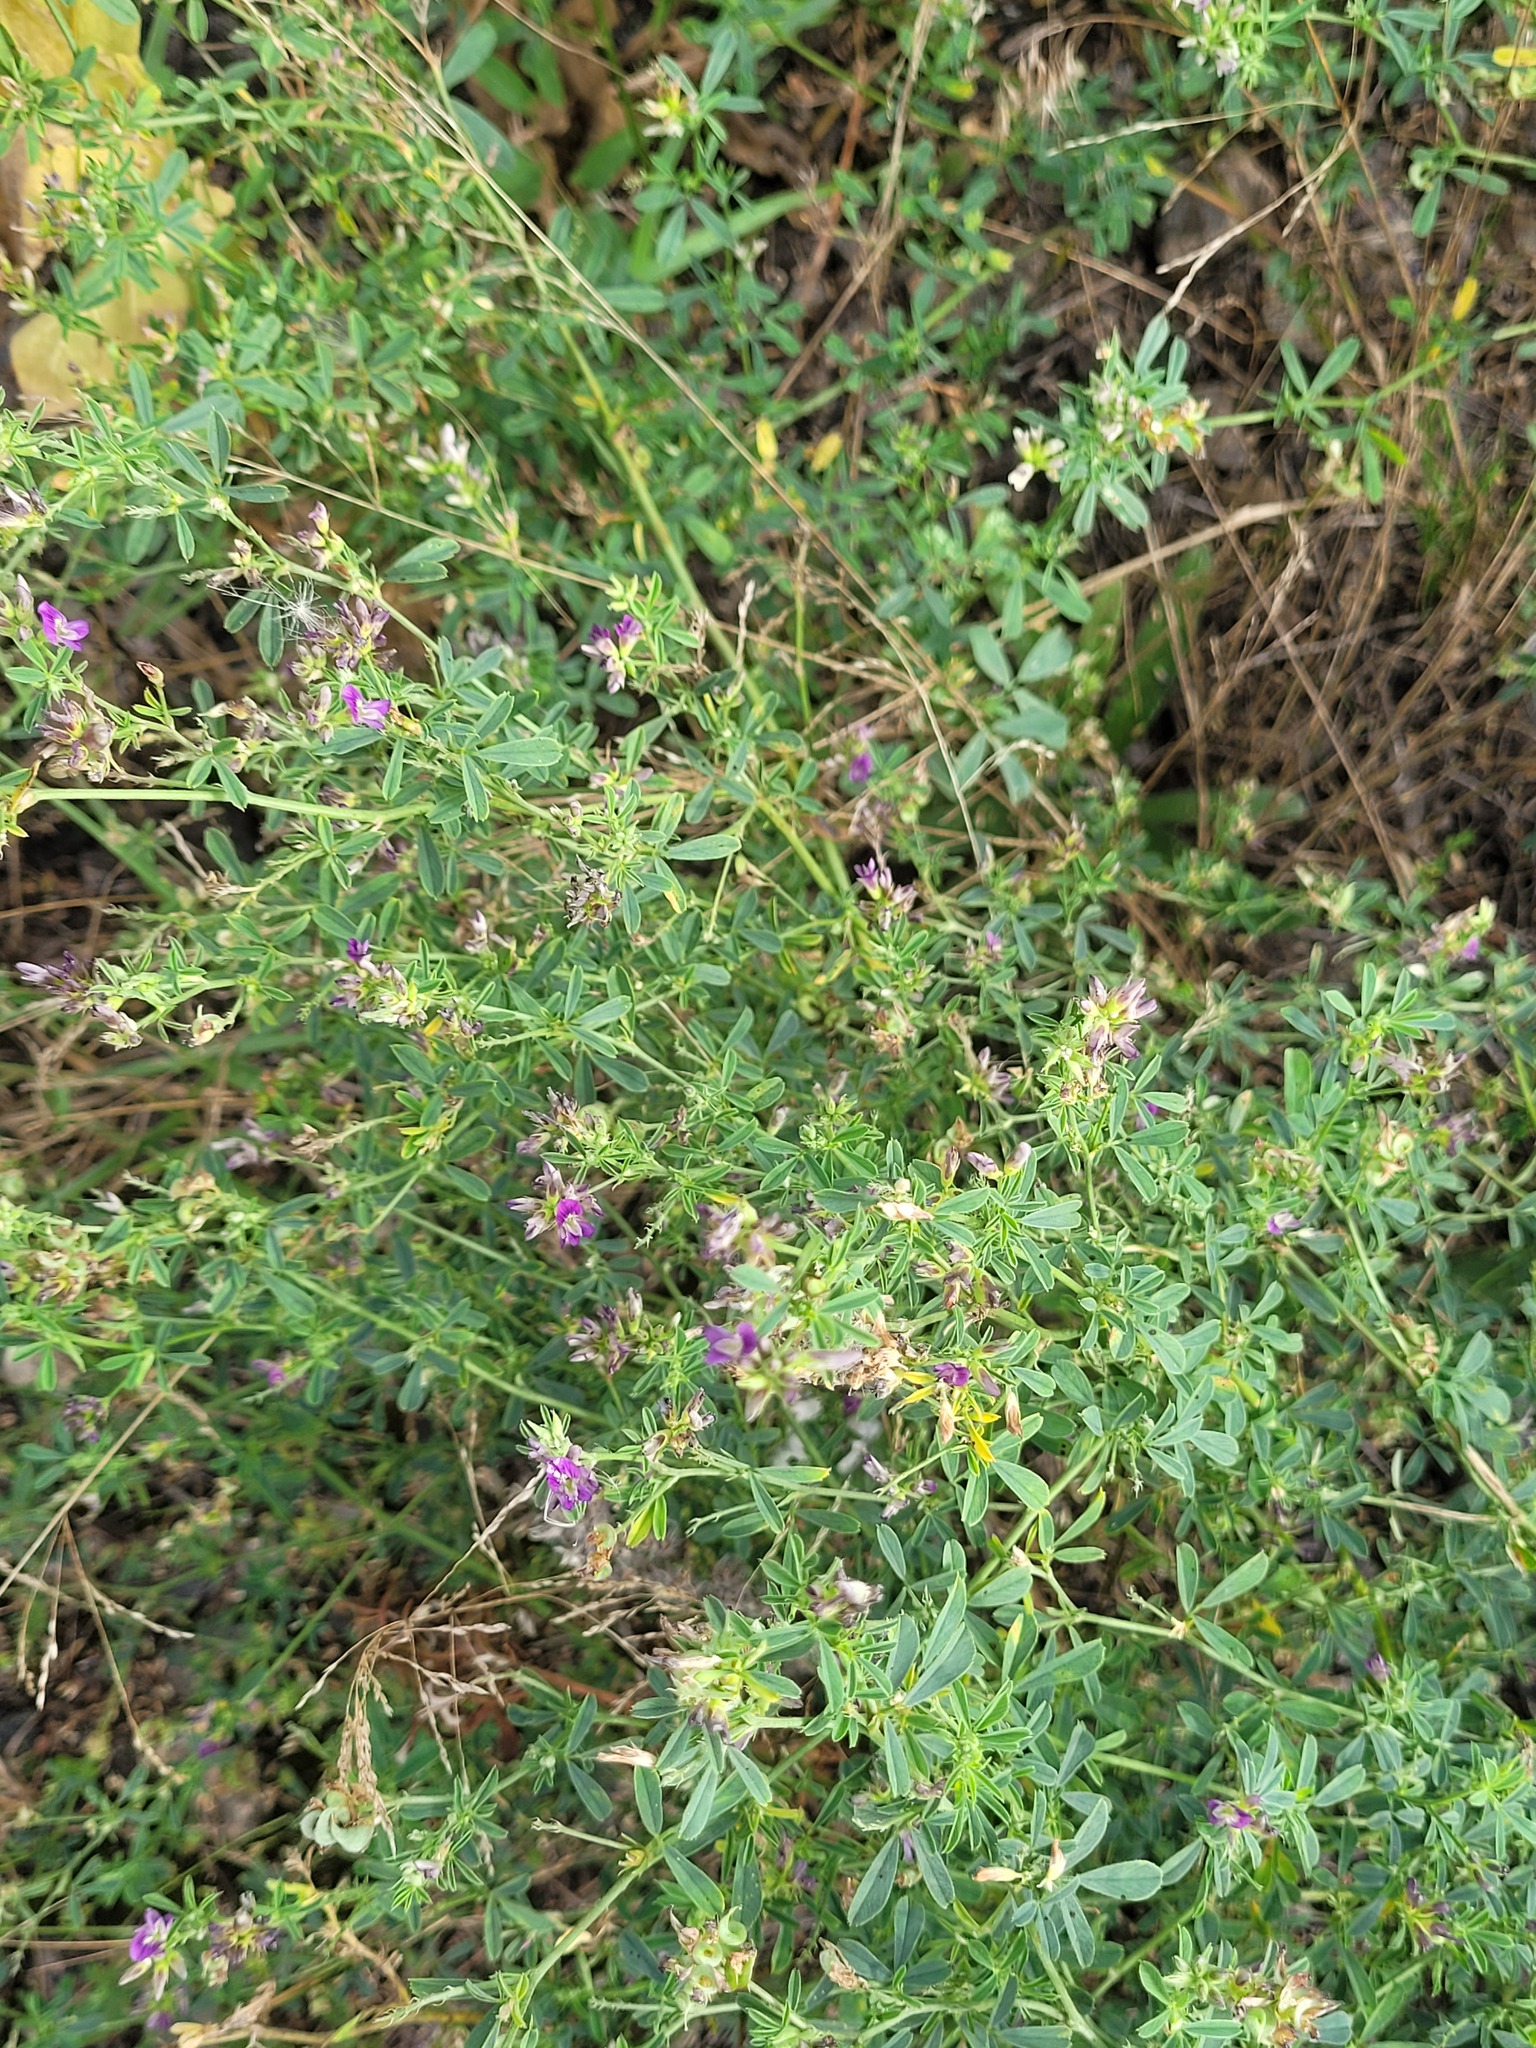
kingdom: Plantae
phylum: Tracheophyta
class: Magnoliopsida
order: Fabales
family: Fabaceae
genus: Medicago
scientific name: Medicago varia
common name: Sand lucerne
